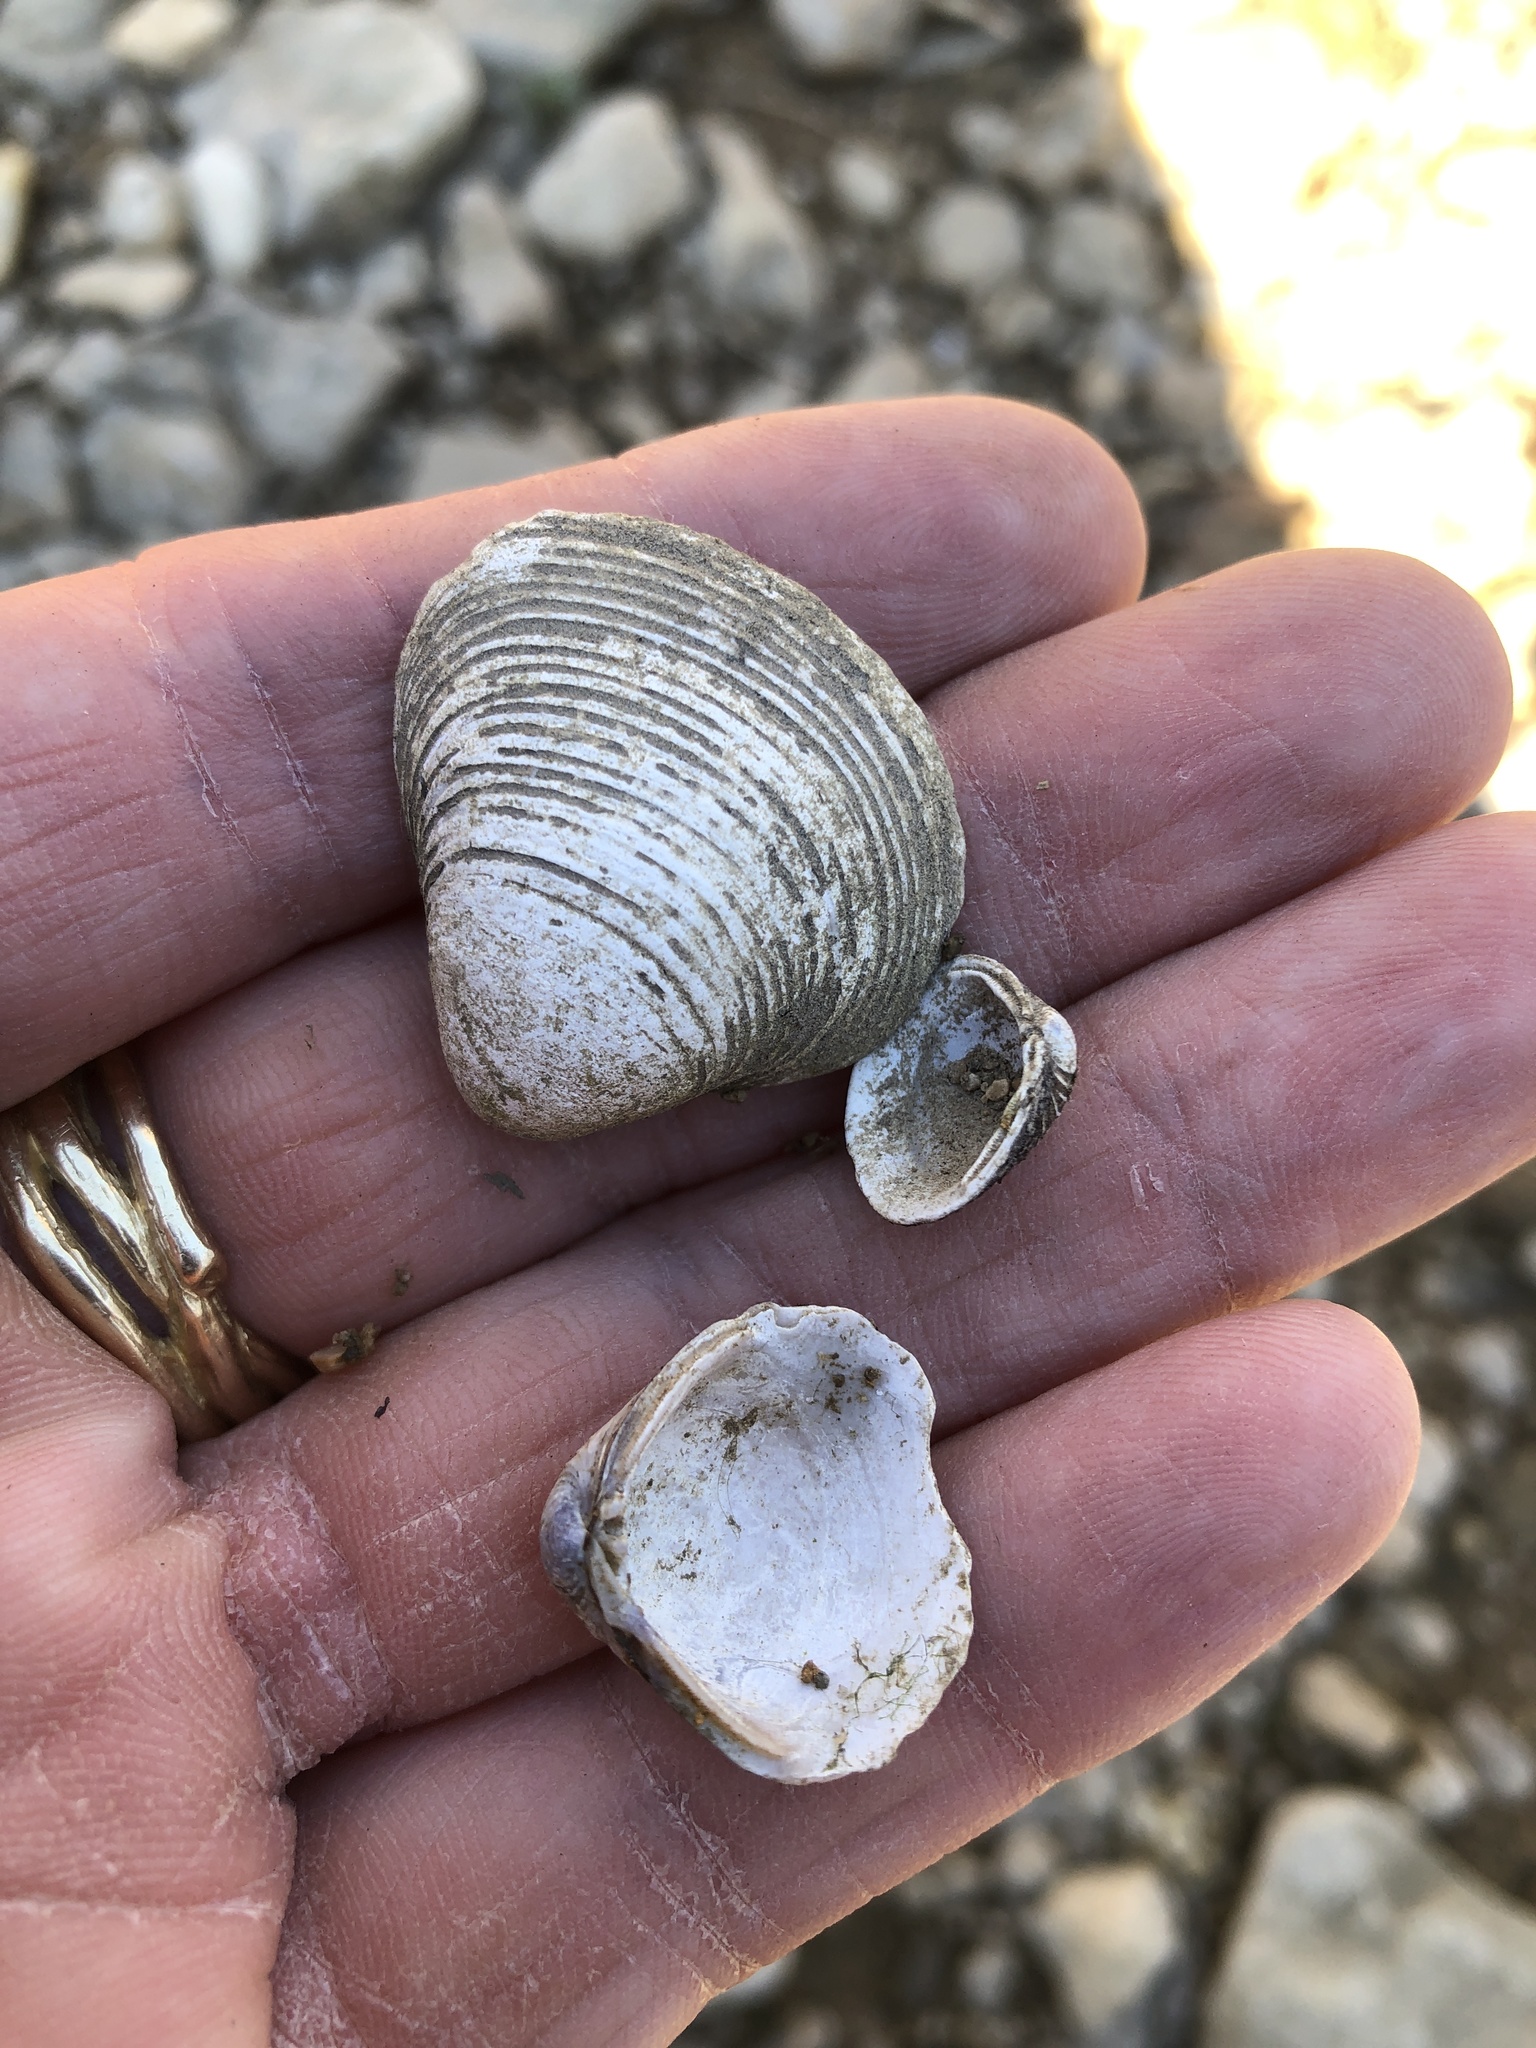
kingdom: Animalia
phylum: Mollusca
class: Bivalvia
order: Venerida
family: Cyrenidae
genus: Corbicula
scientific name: Corbicula fluminea
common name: Asian clam
